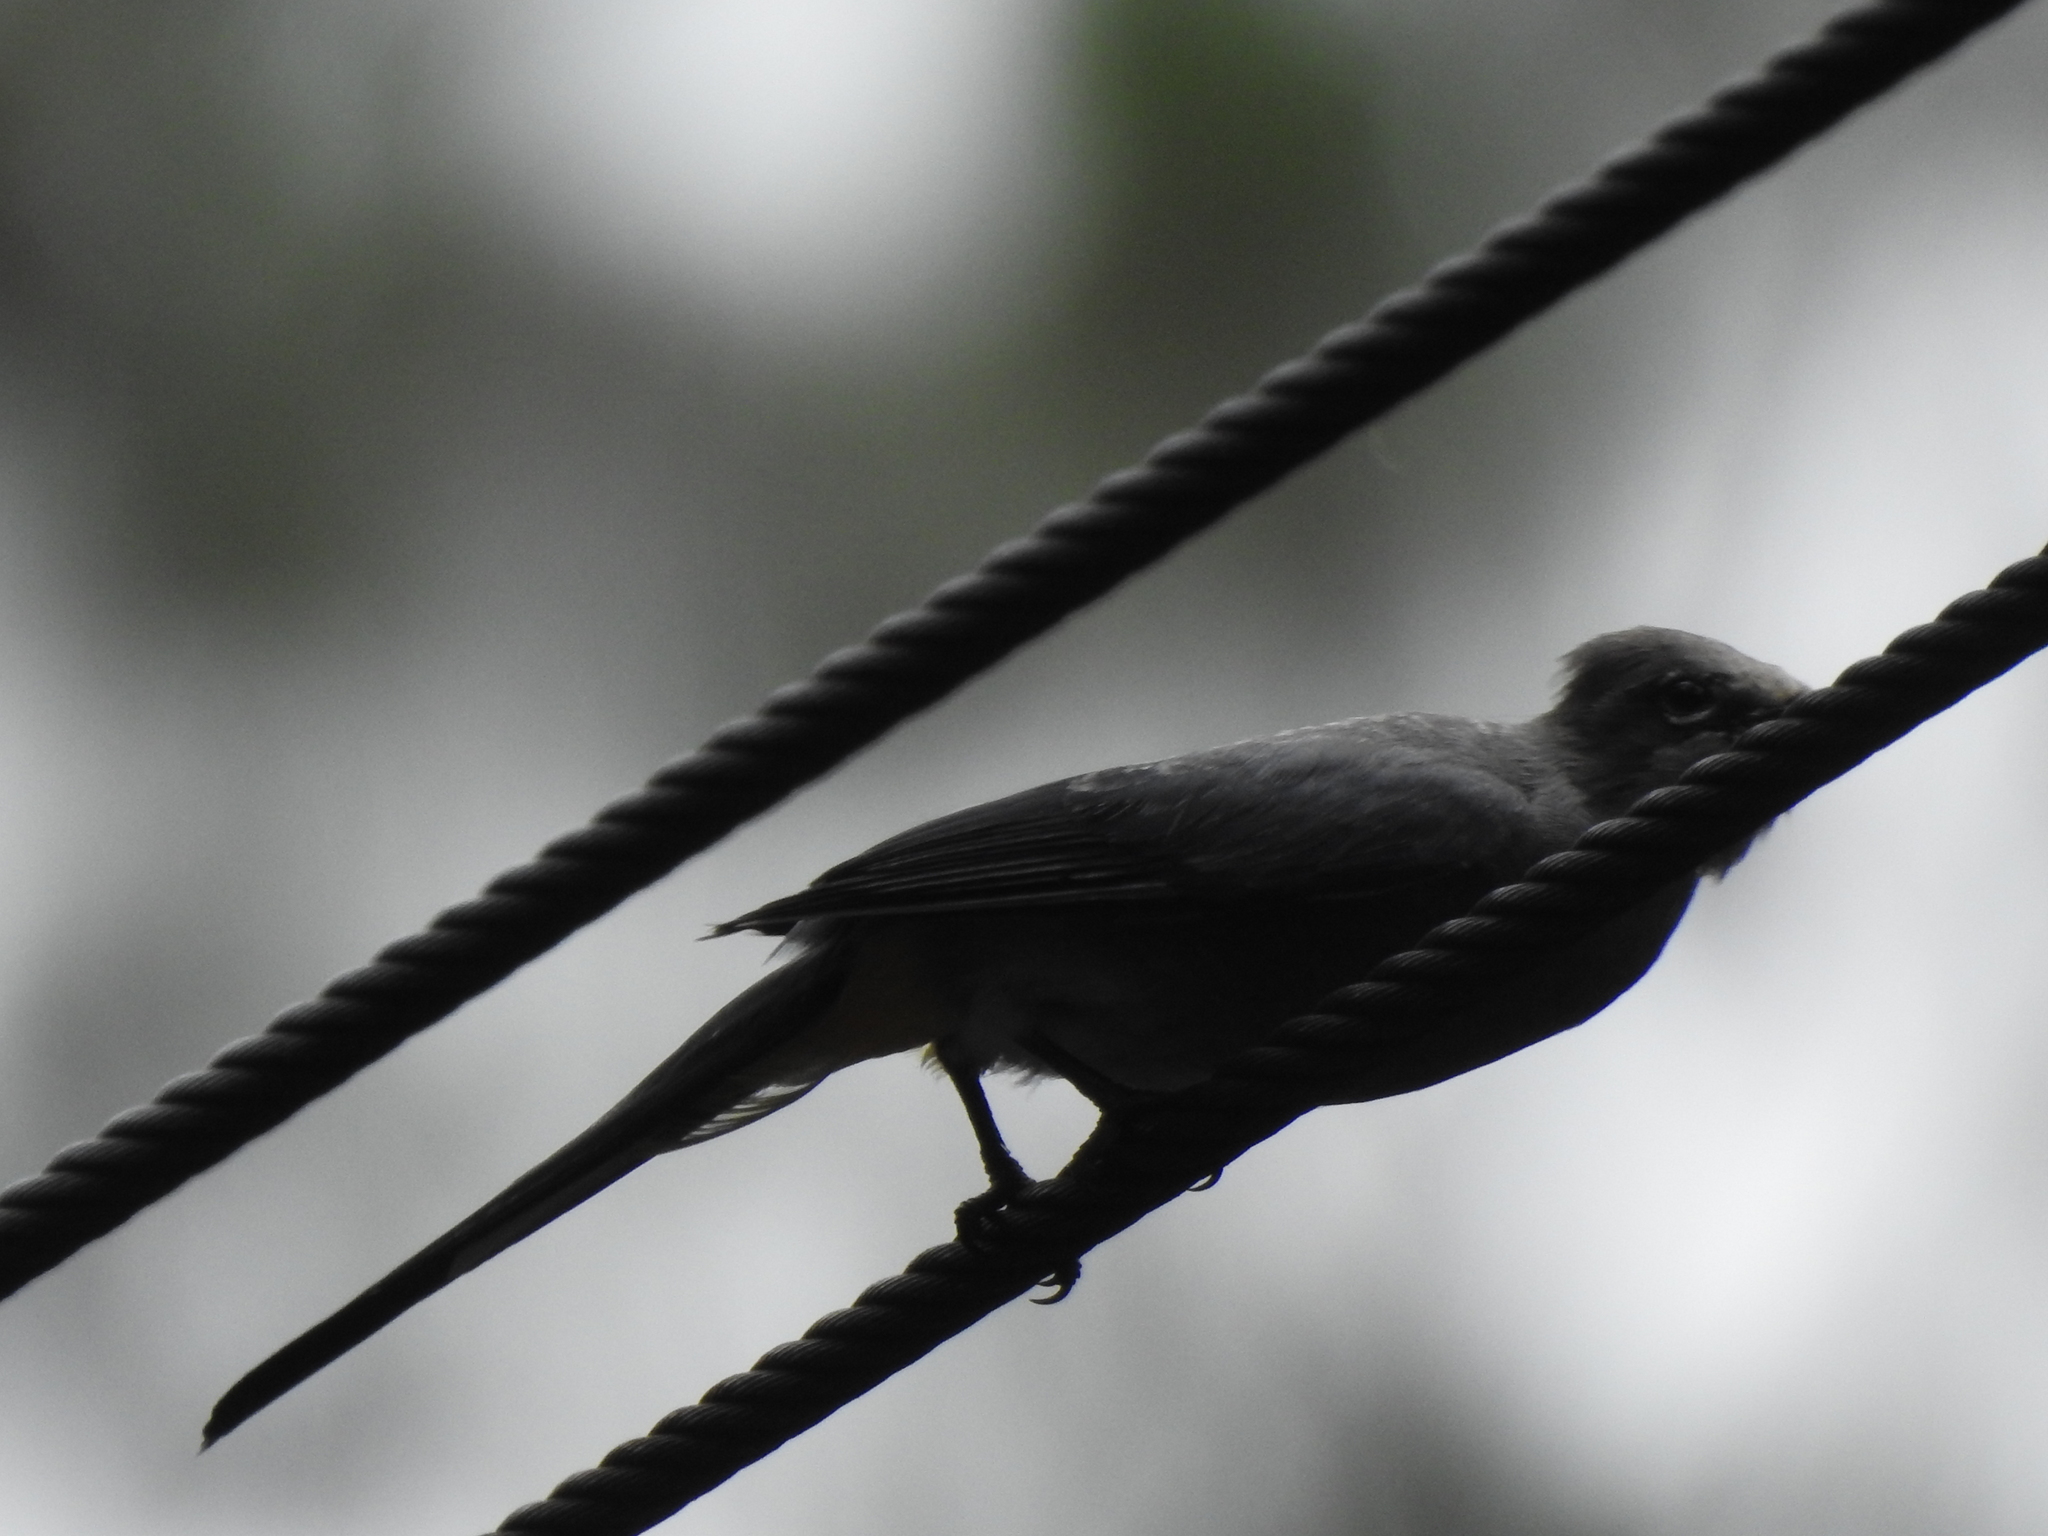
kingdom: Animalia
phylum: Chordata
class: Aves
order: Passeriformes
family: Ptilogonatidae
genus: Ptilogonys
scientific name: Ptilogonys cinereus
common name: Gray silky-flycatcher
